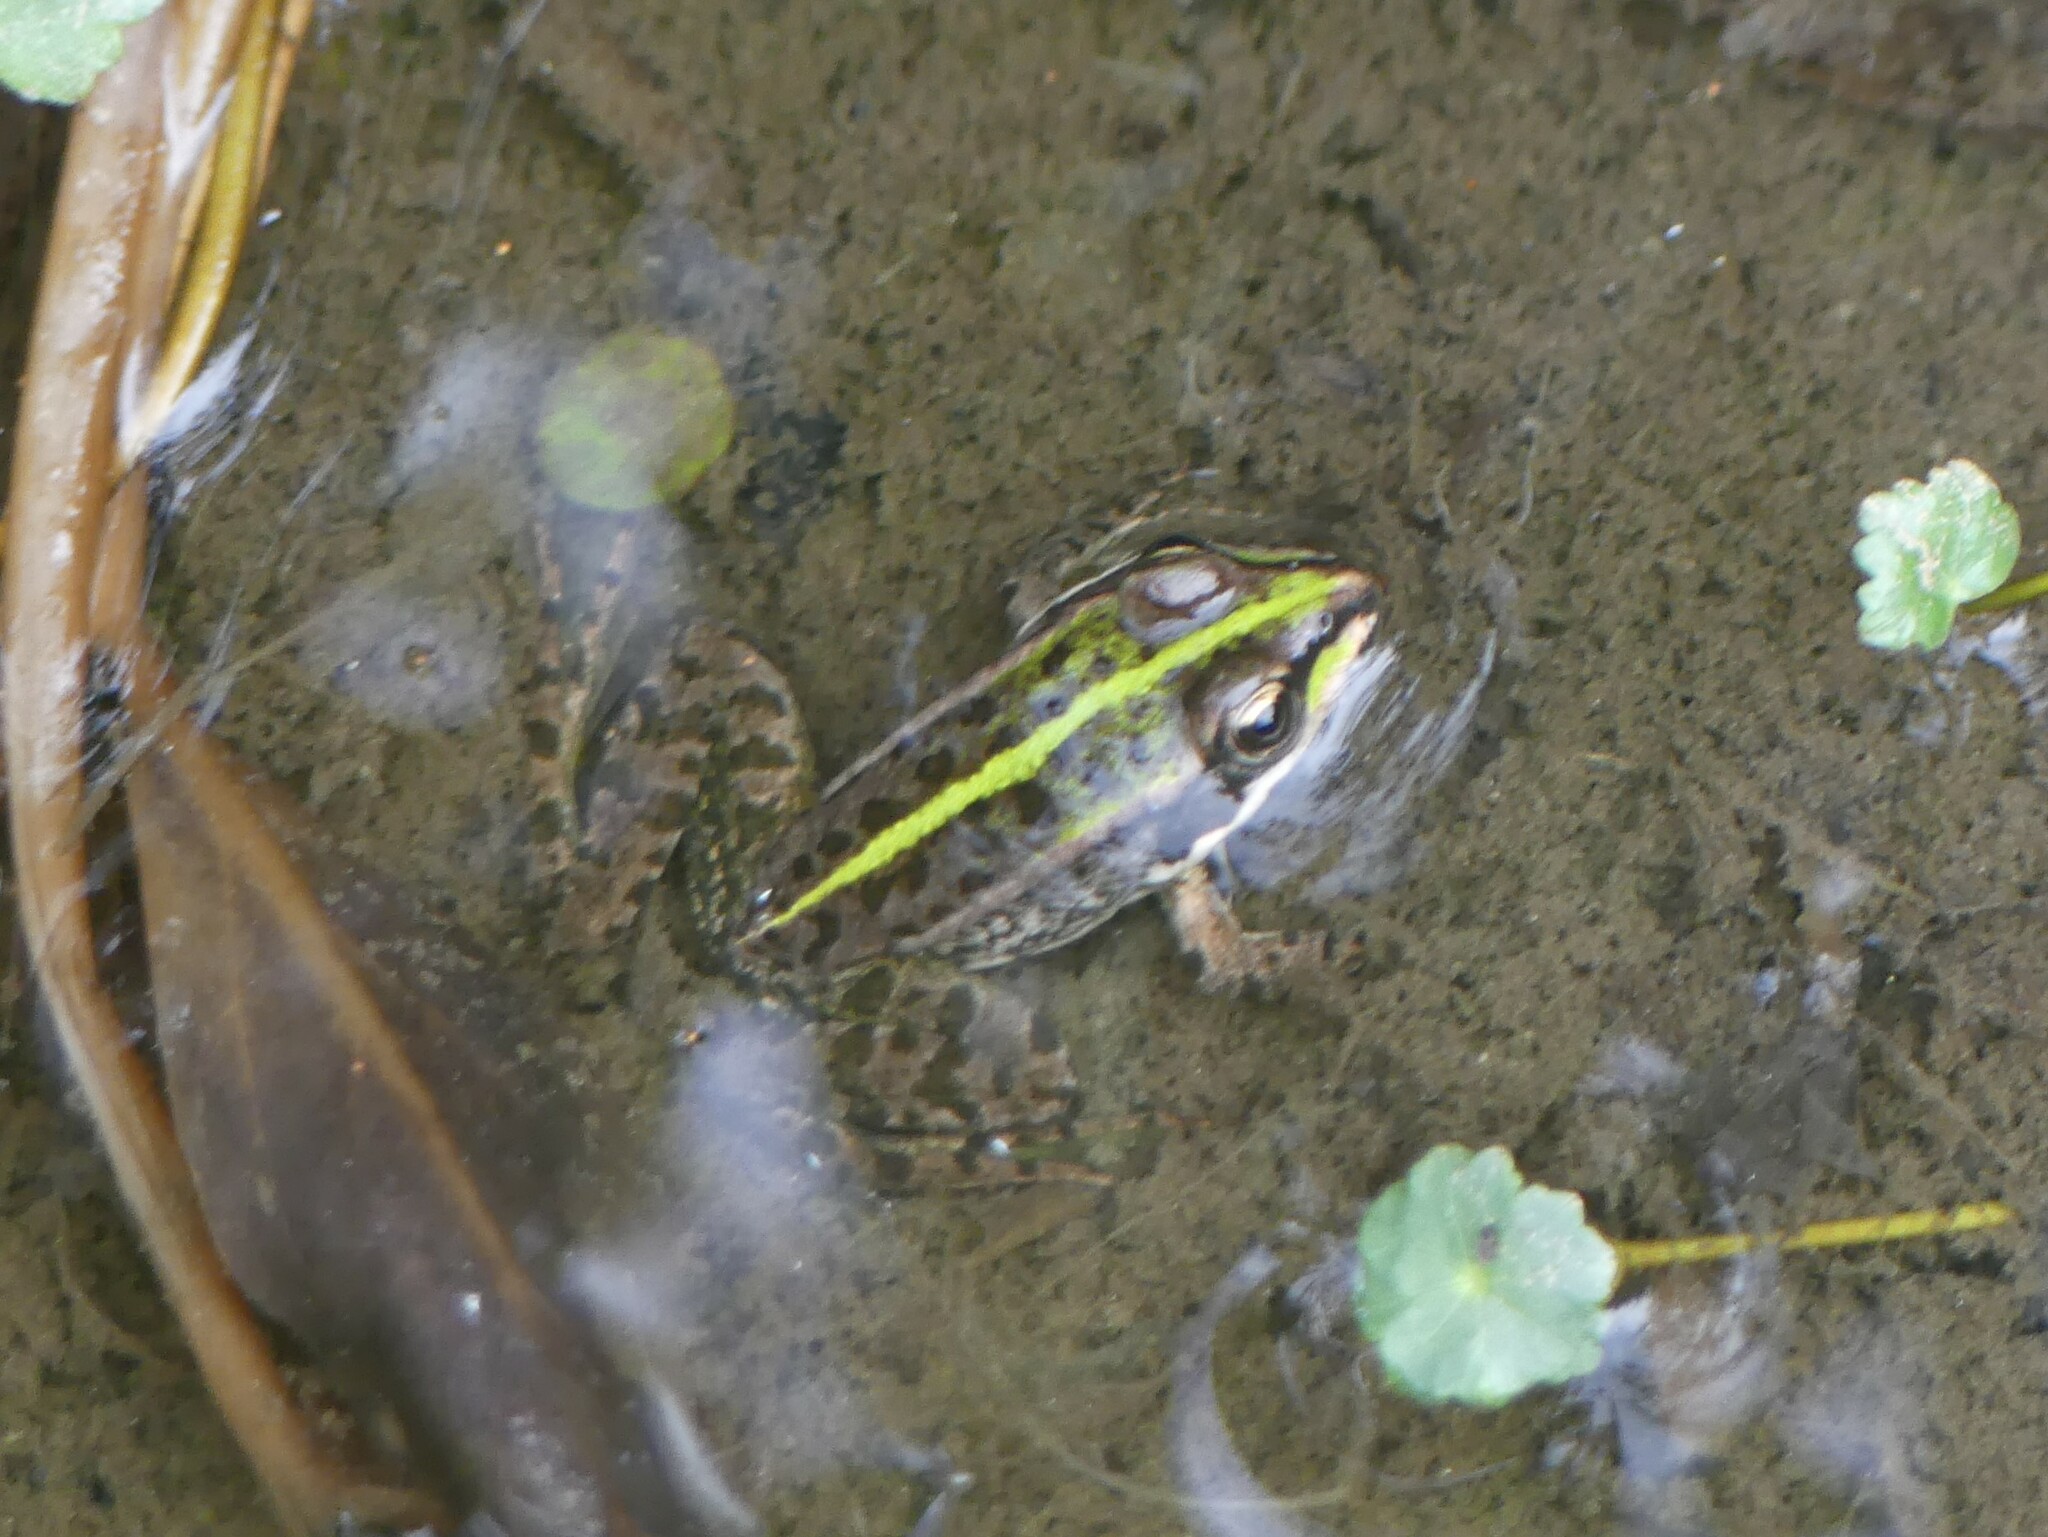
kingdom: Animalia
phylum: Chordata
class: Amphibia
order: Anura
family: Ranidae
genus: Pelophylax
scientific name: Pelophylax
